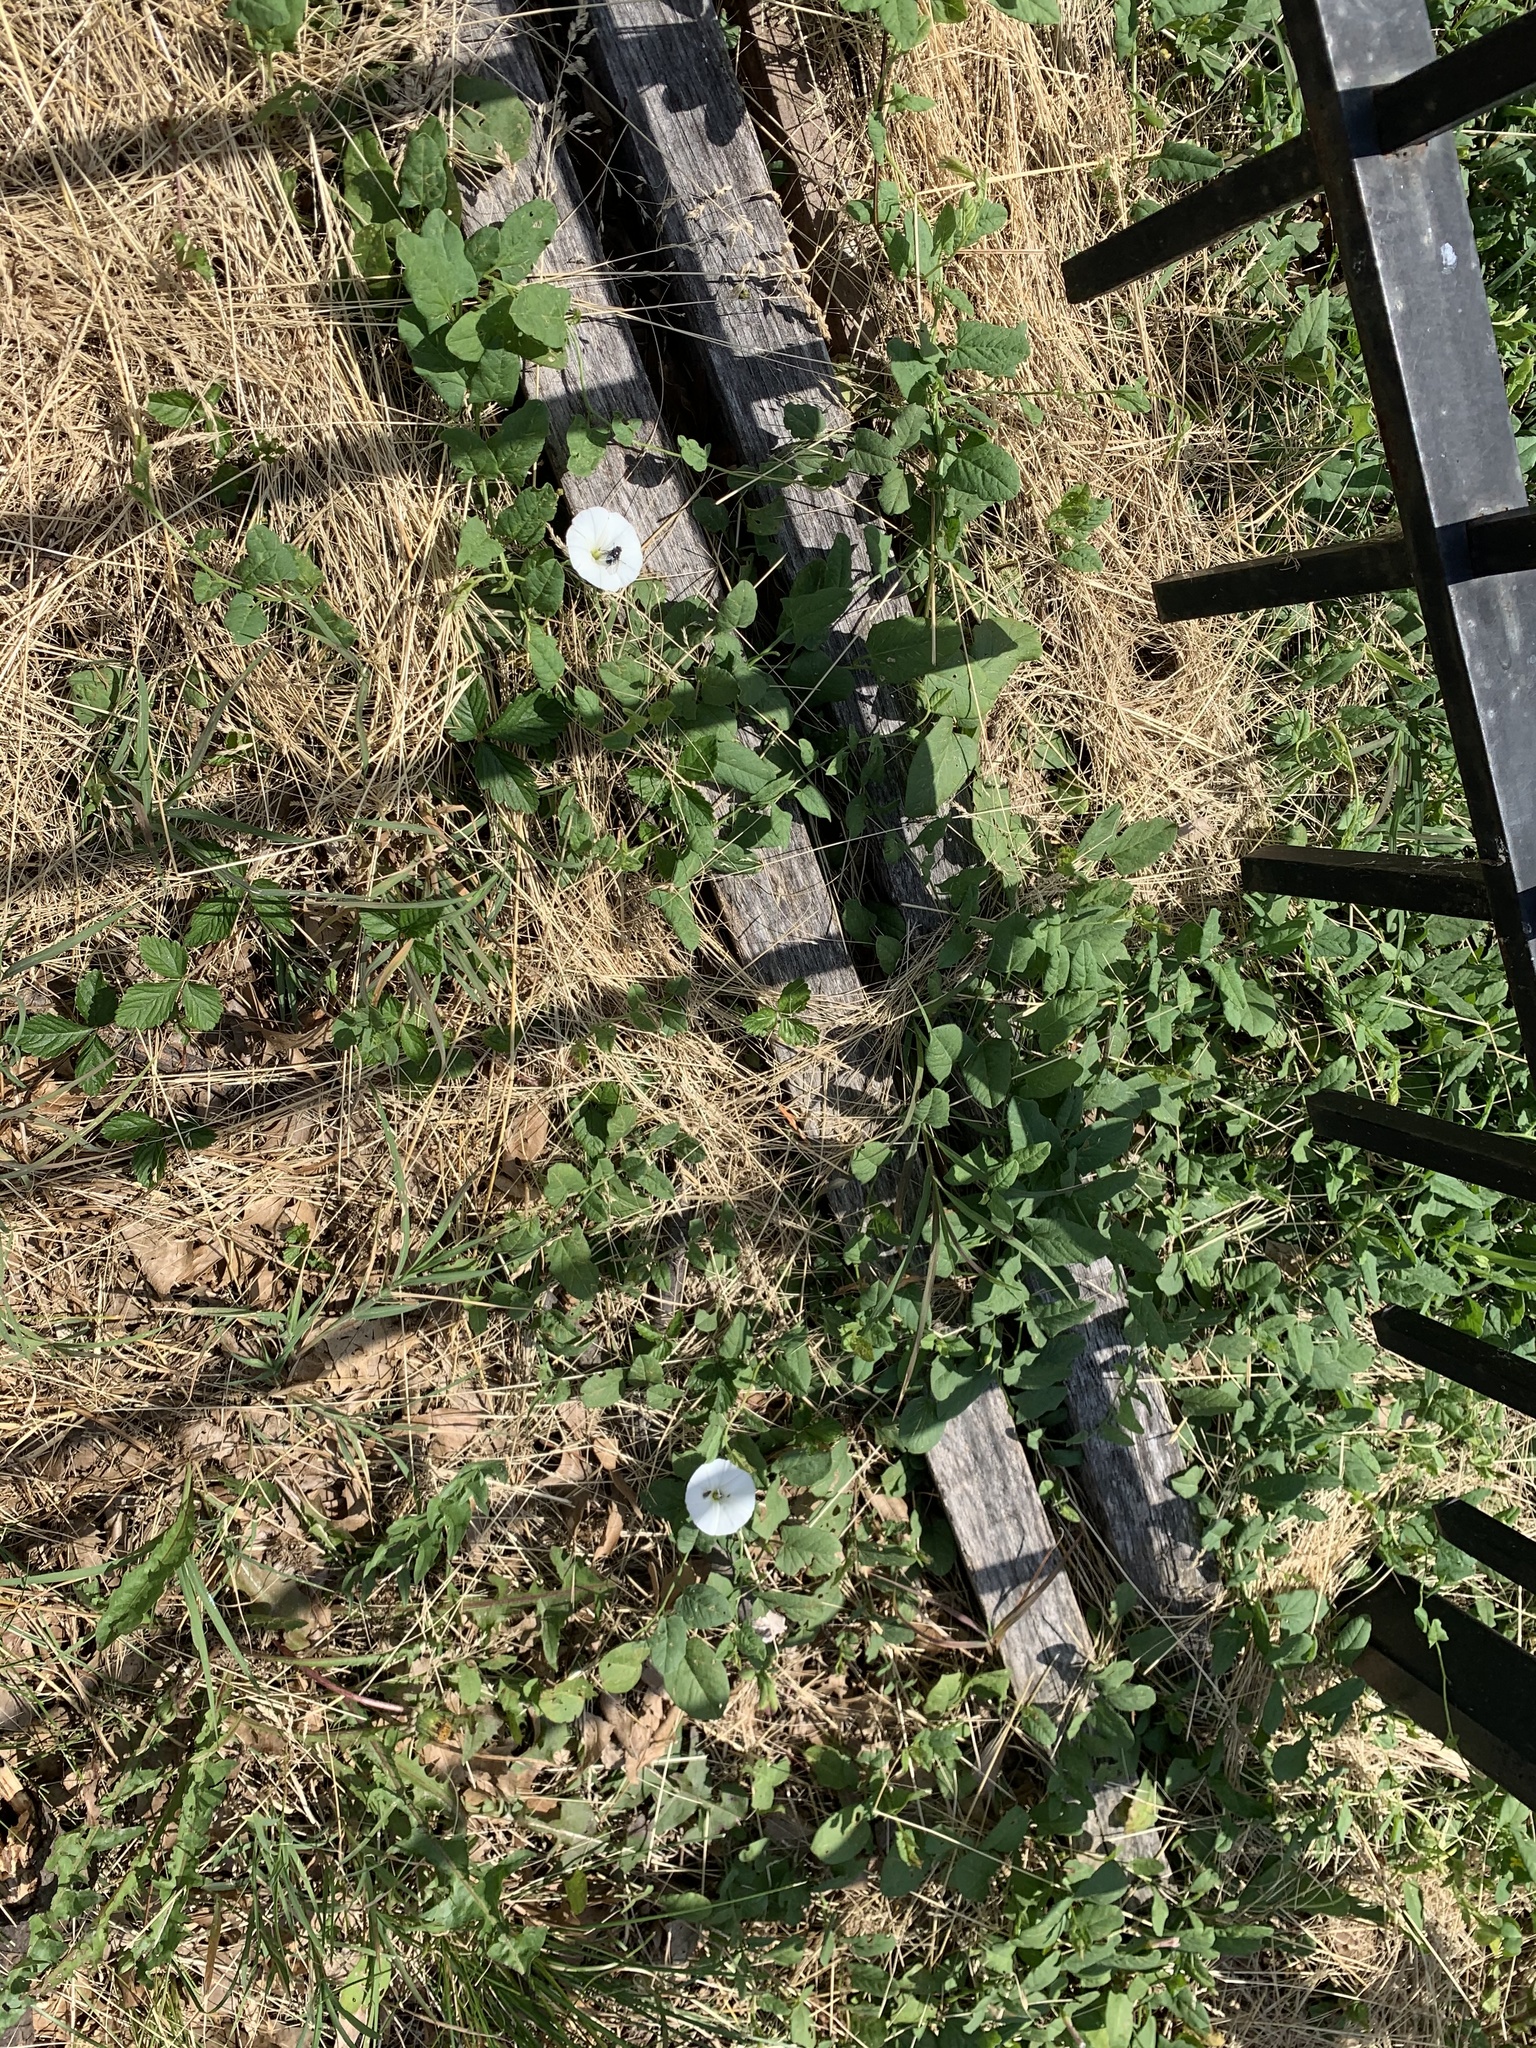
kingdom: Plantae
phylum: Tracheophyta
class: Magnoliopsida
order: Solanales
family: Convolvulaceae
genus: Convolvulus
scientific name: Convolvulus arvensis
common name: Field bindweed
